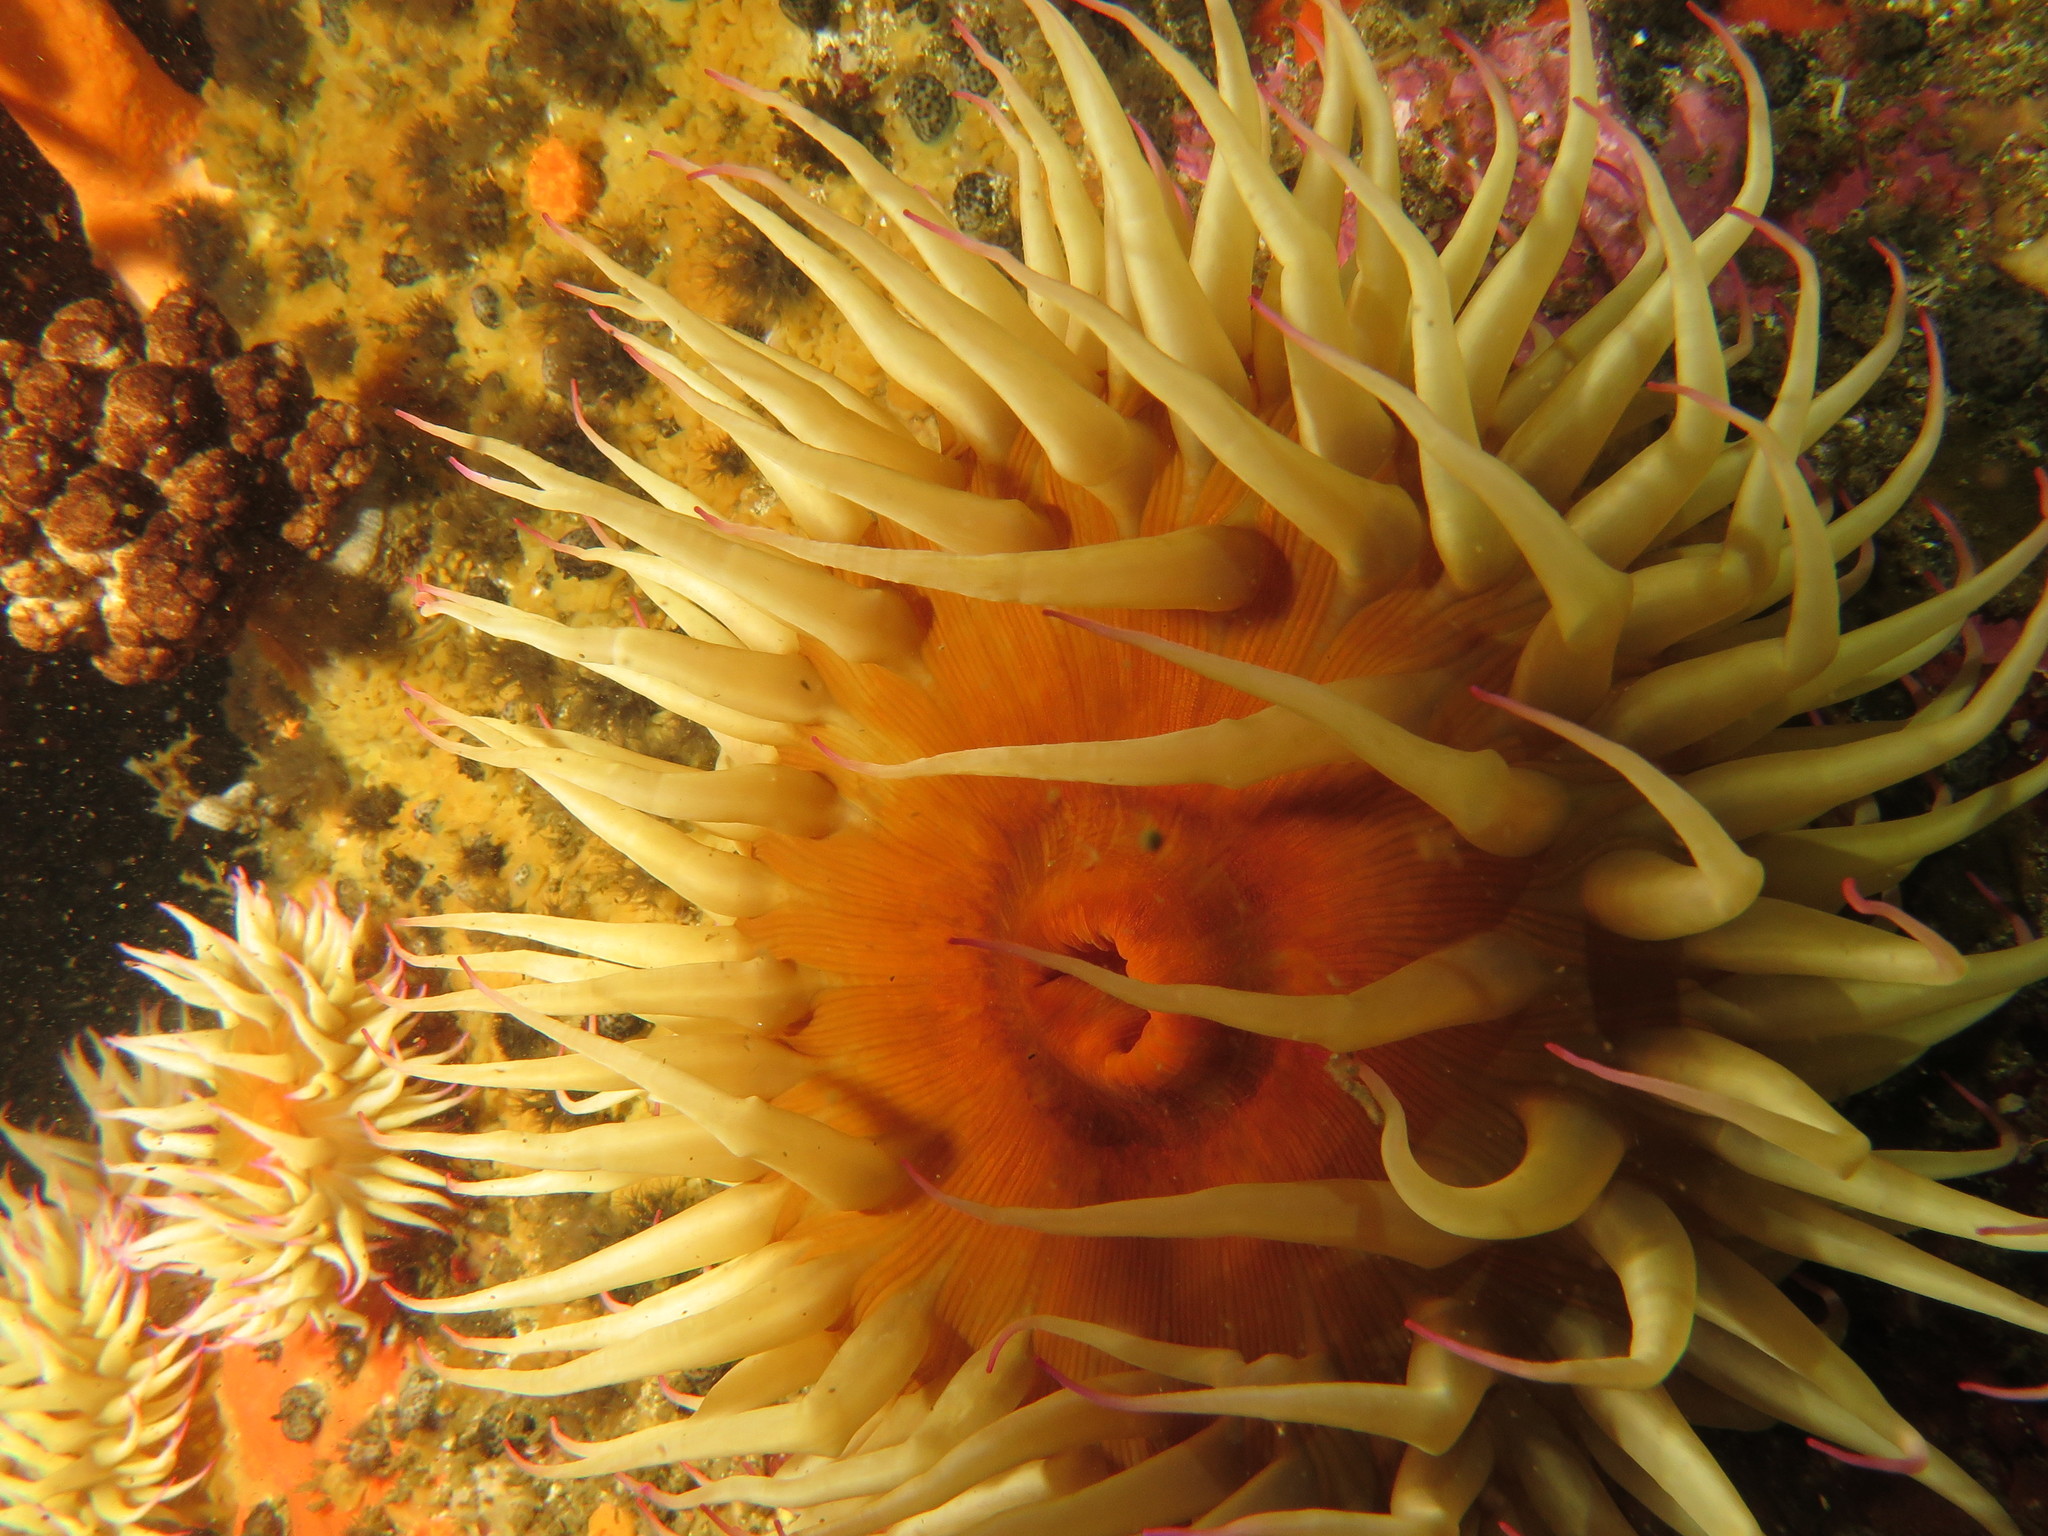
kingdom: Animalia
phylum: Cnidaria
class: Anthozoa
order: Actiniaria
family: Actiniidae
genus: Pseudactinia
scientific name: Pseudactinia flagellifera
